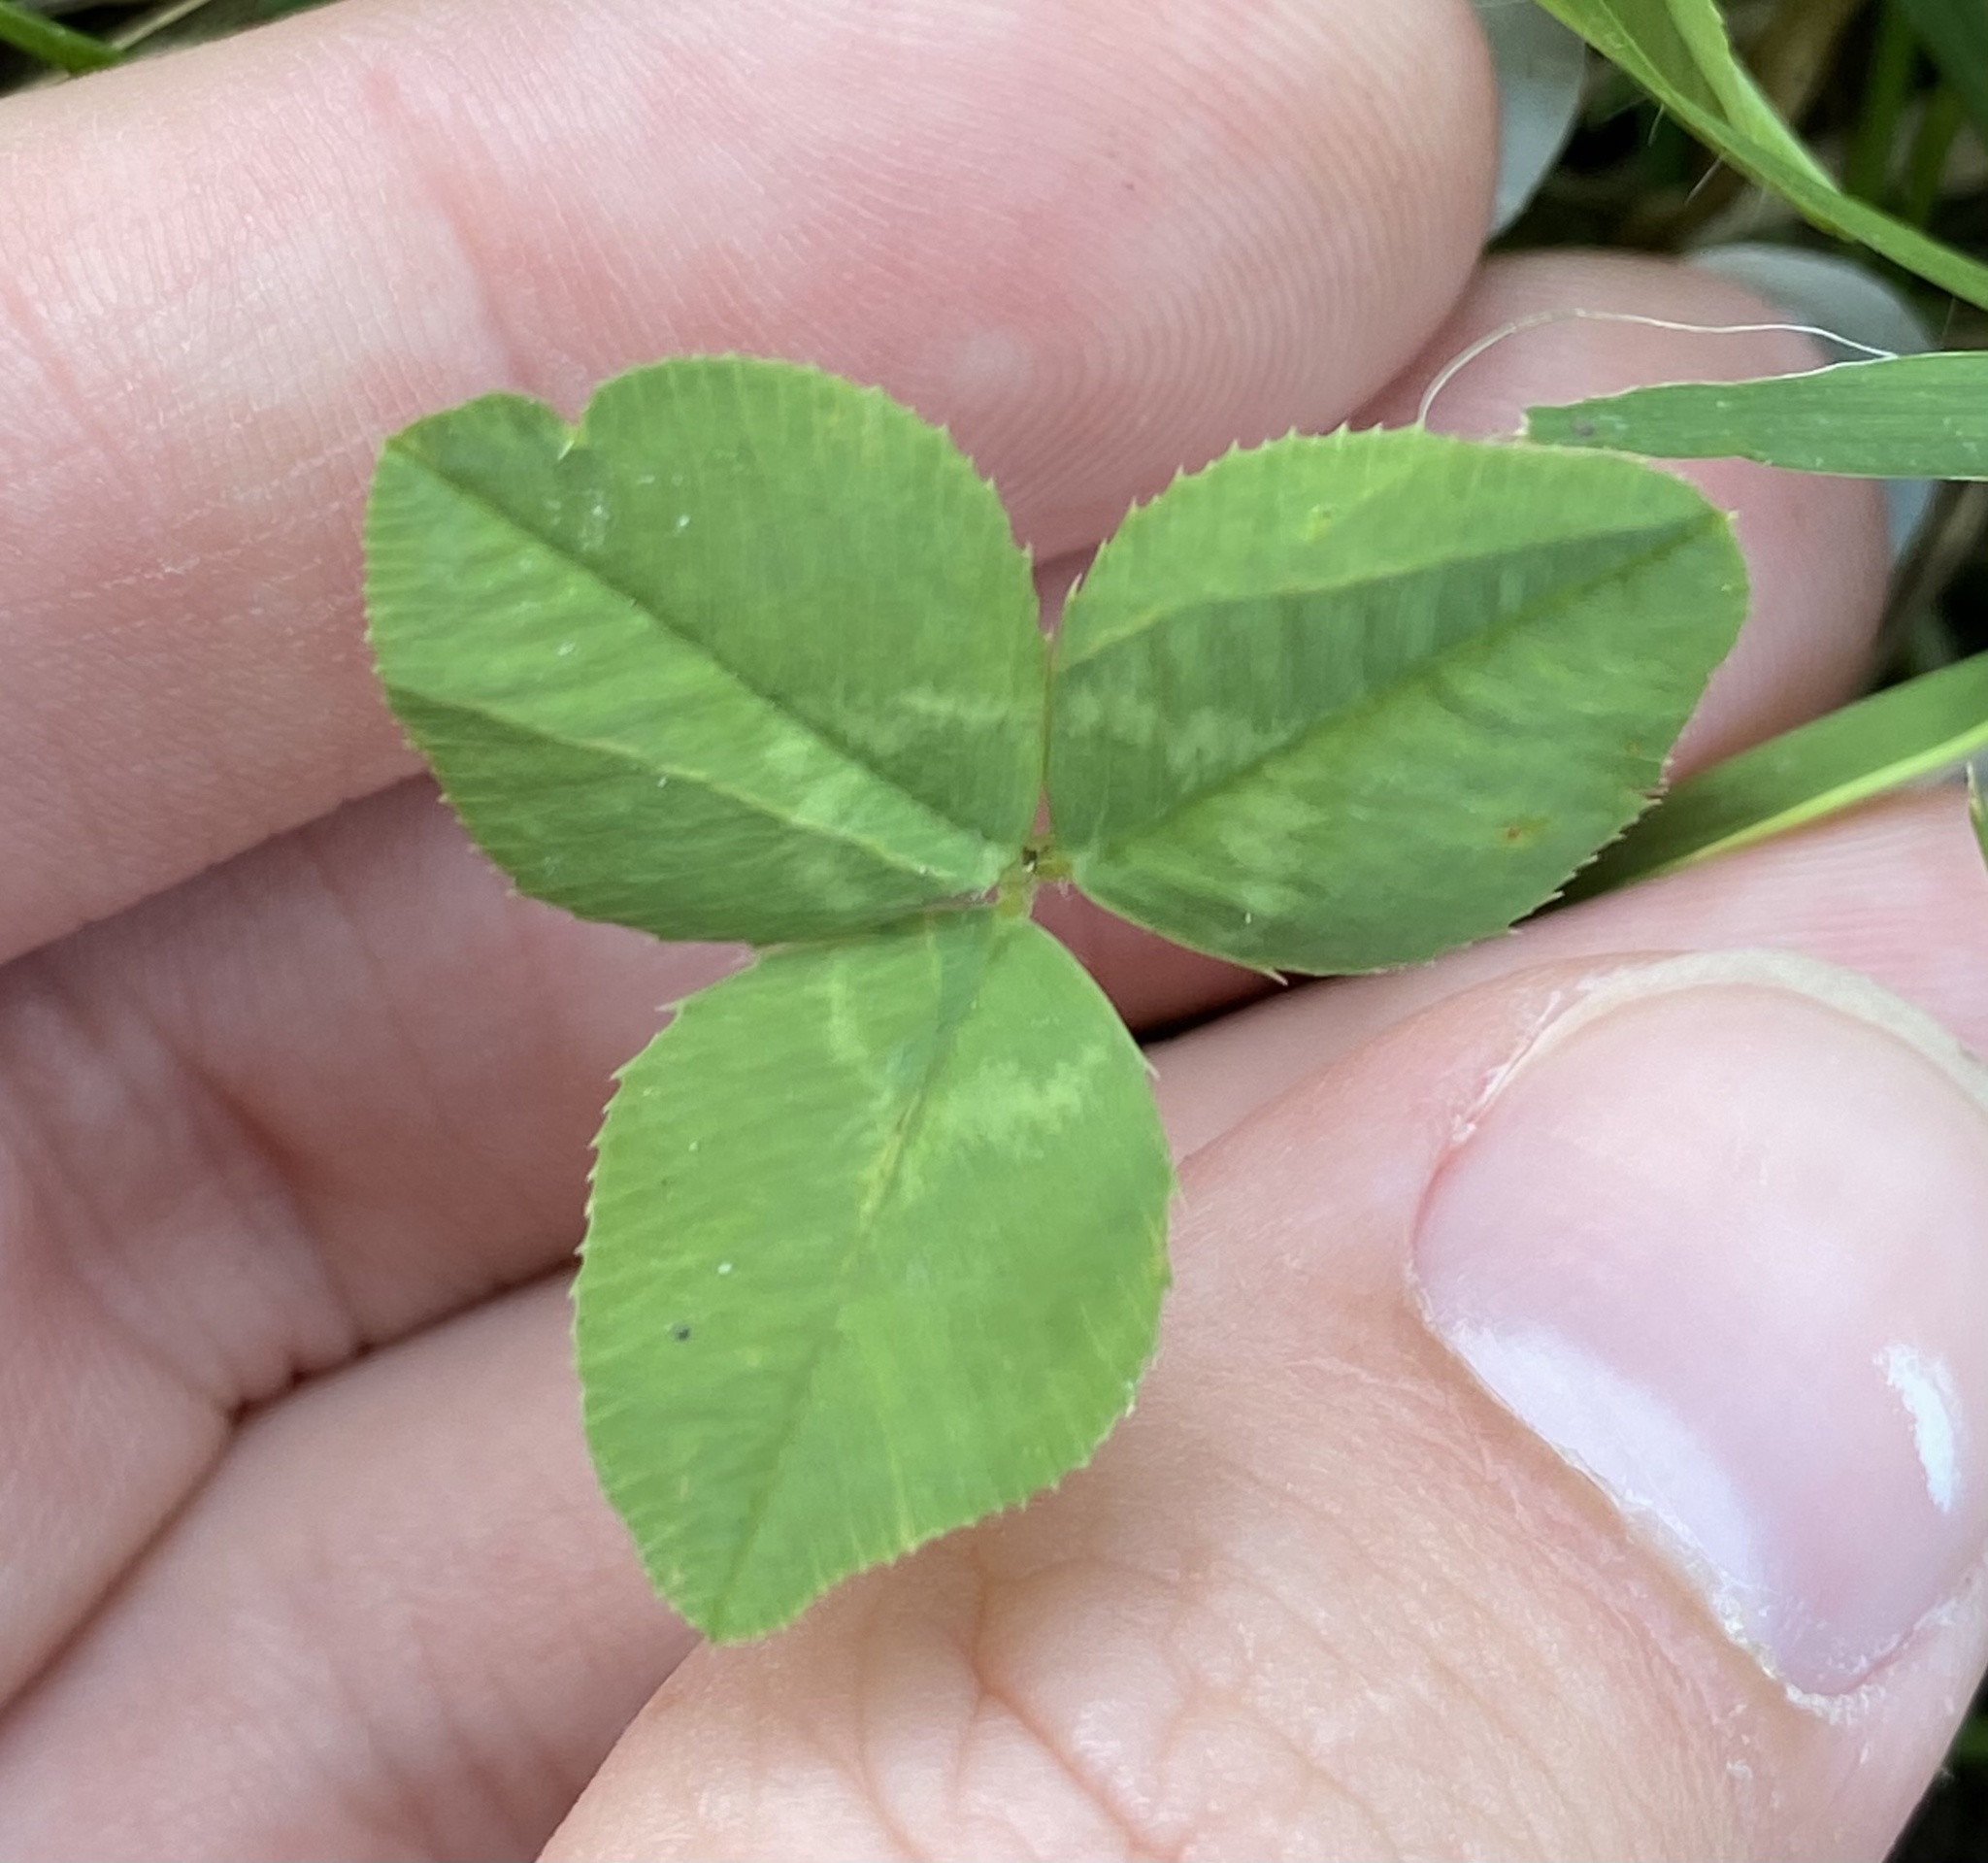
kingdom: Plantae
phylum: Tracheophyta
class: Magnoliopsida
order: Fabales
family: Fabaceae
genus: Trifolium
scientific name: Trifolium repens
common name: White clover
